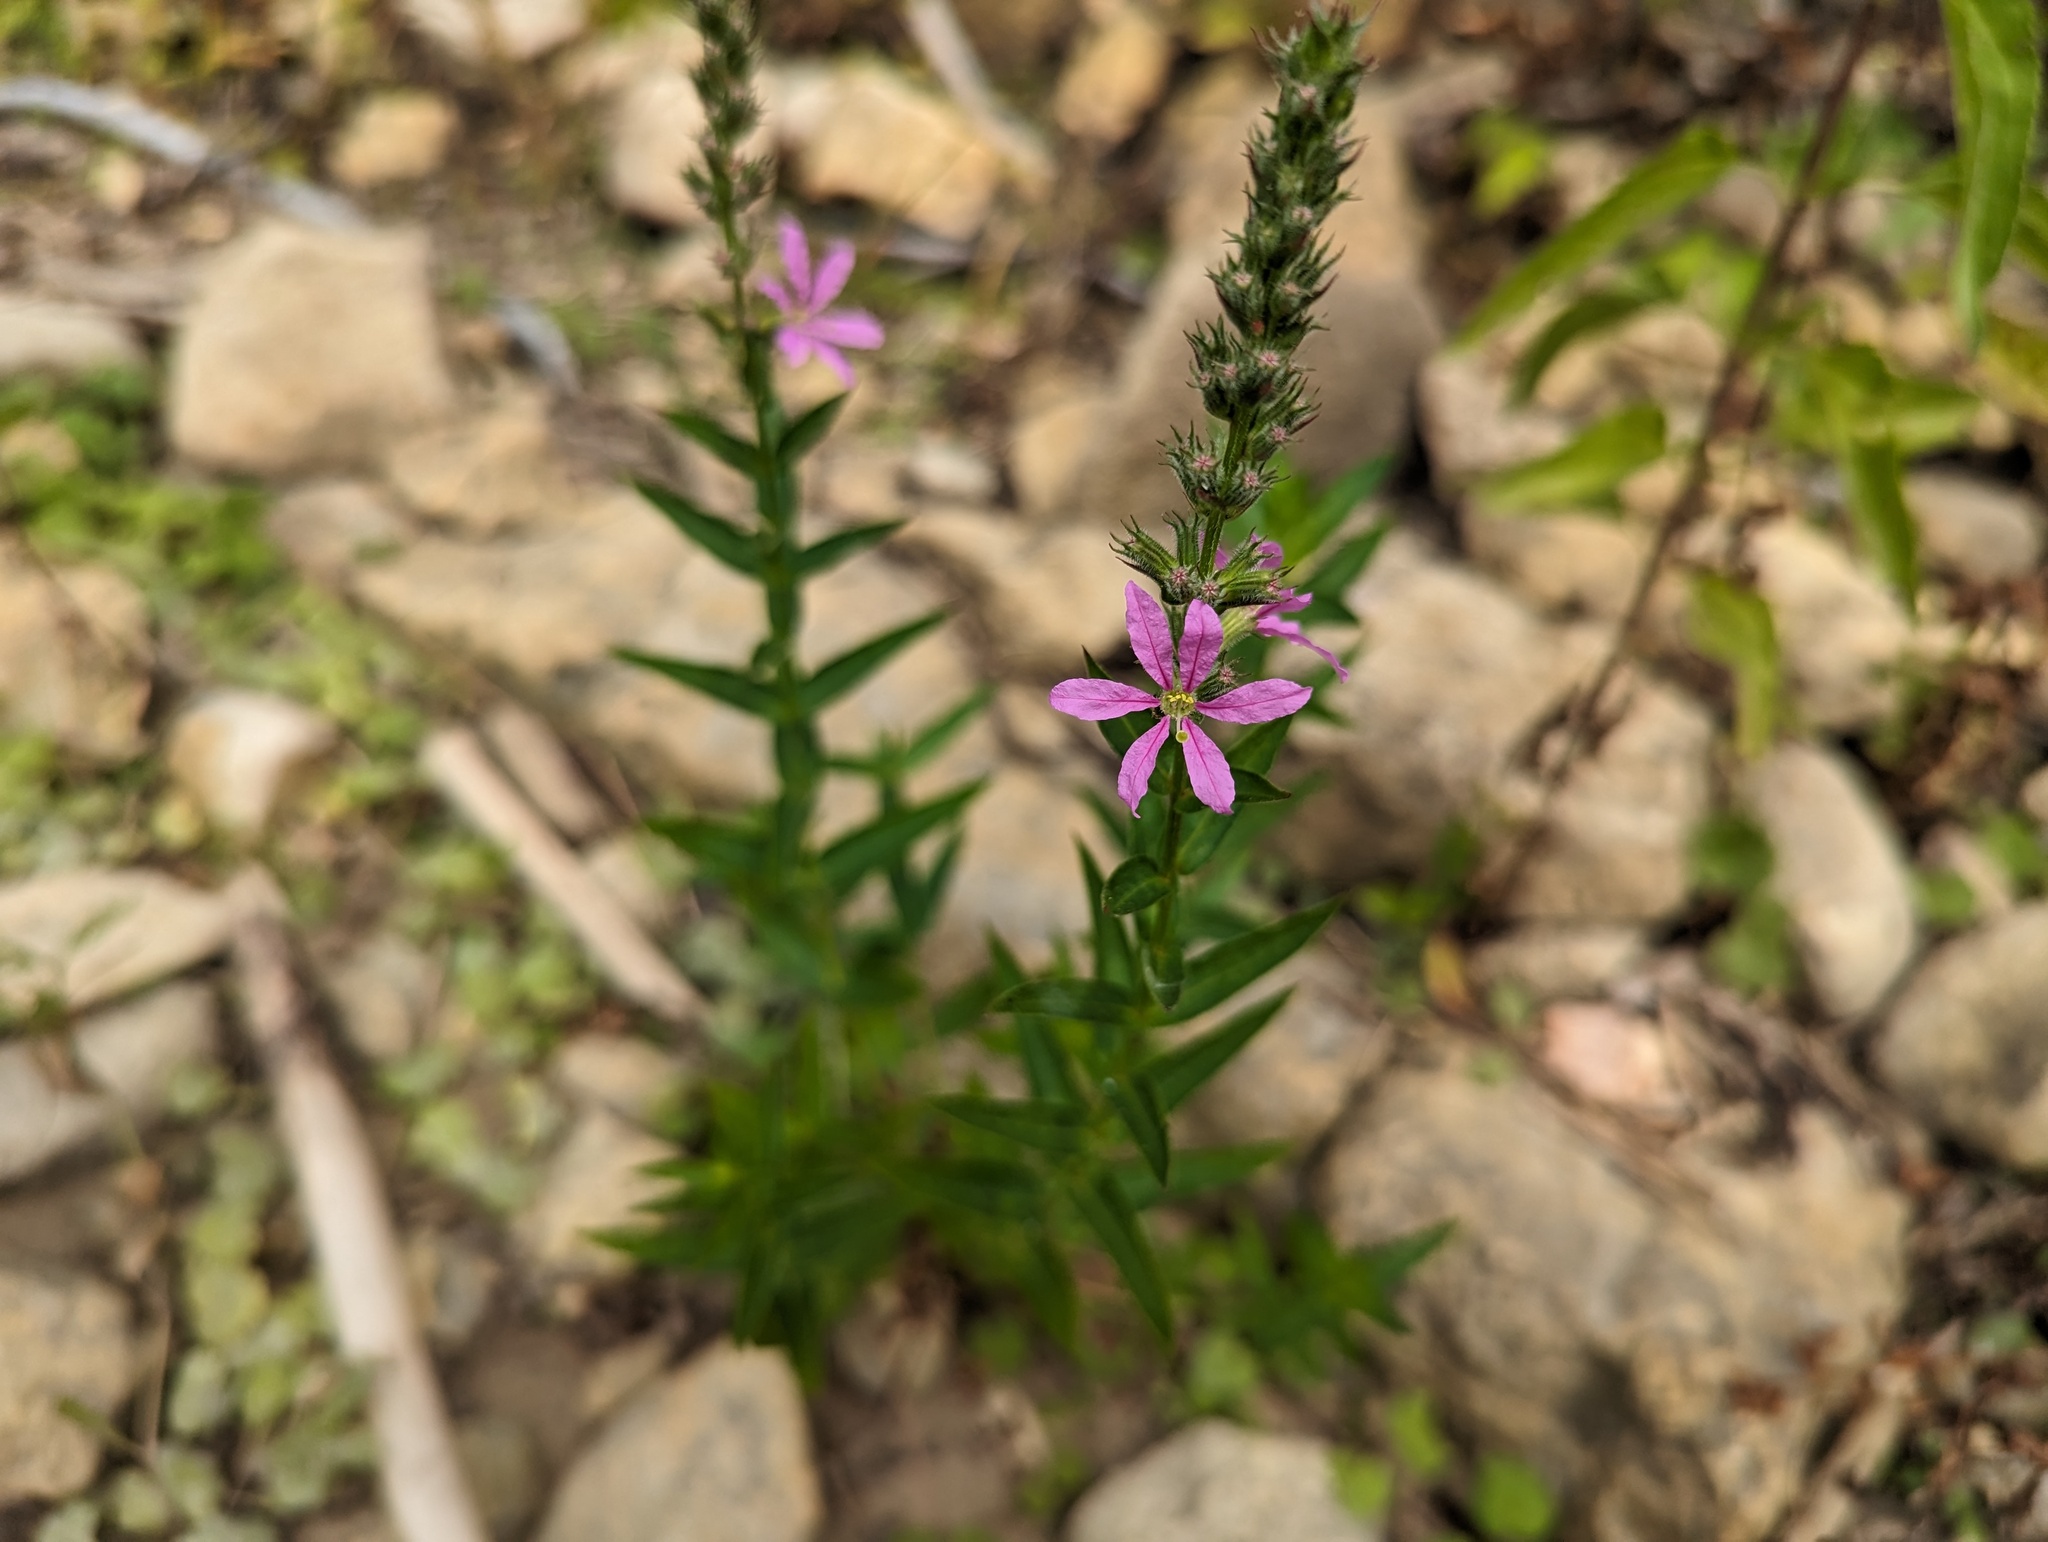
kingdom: Plantae
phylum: Tracheophyta
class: Magnoliopsida
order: Myrtales
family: Lythraceae
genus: Lythrum
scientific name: Lythrum salicaria
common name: Purple loosestrife
